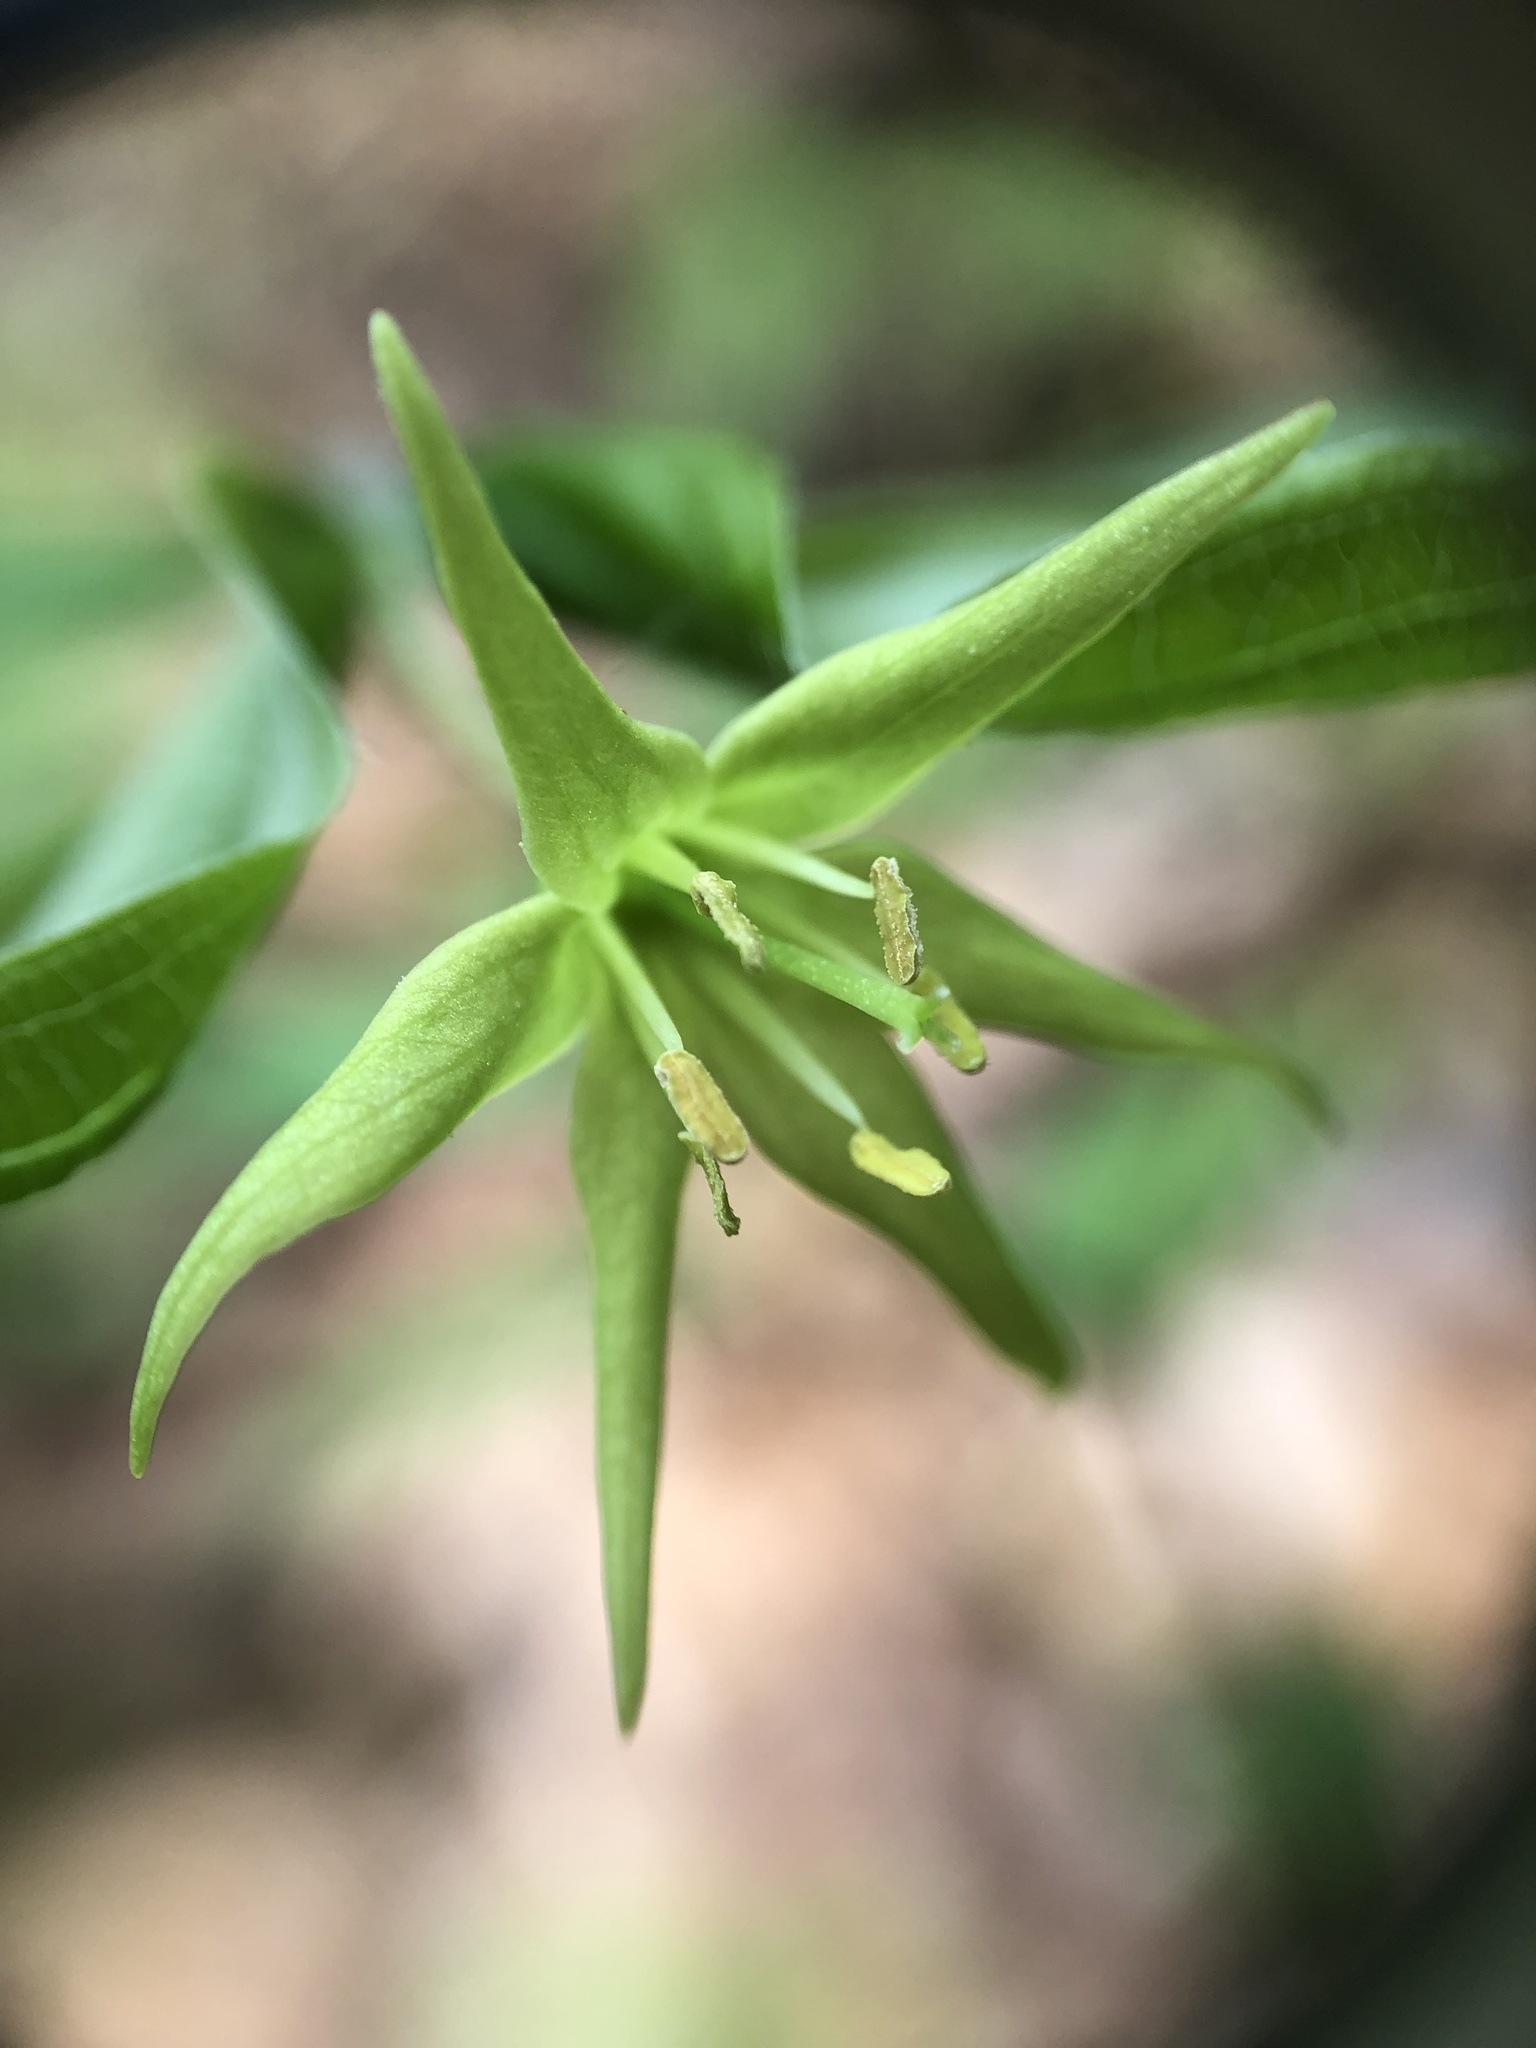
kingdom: Plantae
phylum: Tracheophyta
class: Liliopsida
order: Liliales
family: Liliaceae
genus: Prosartes
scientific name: Prosartes lanuginosa
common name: Hairy mandarin
